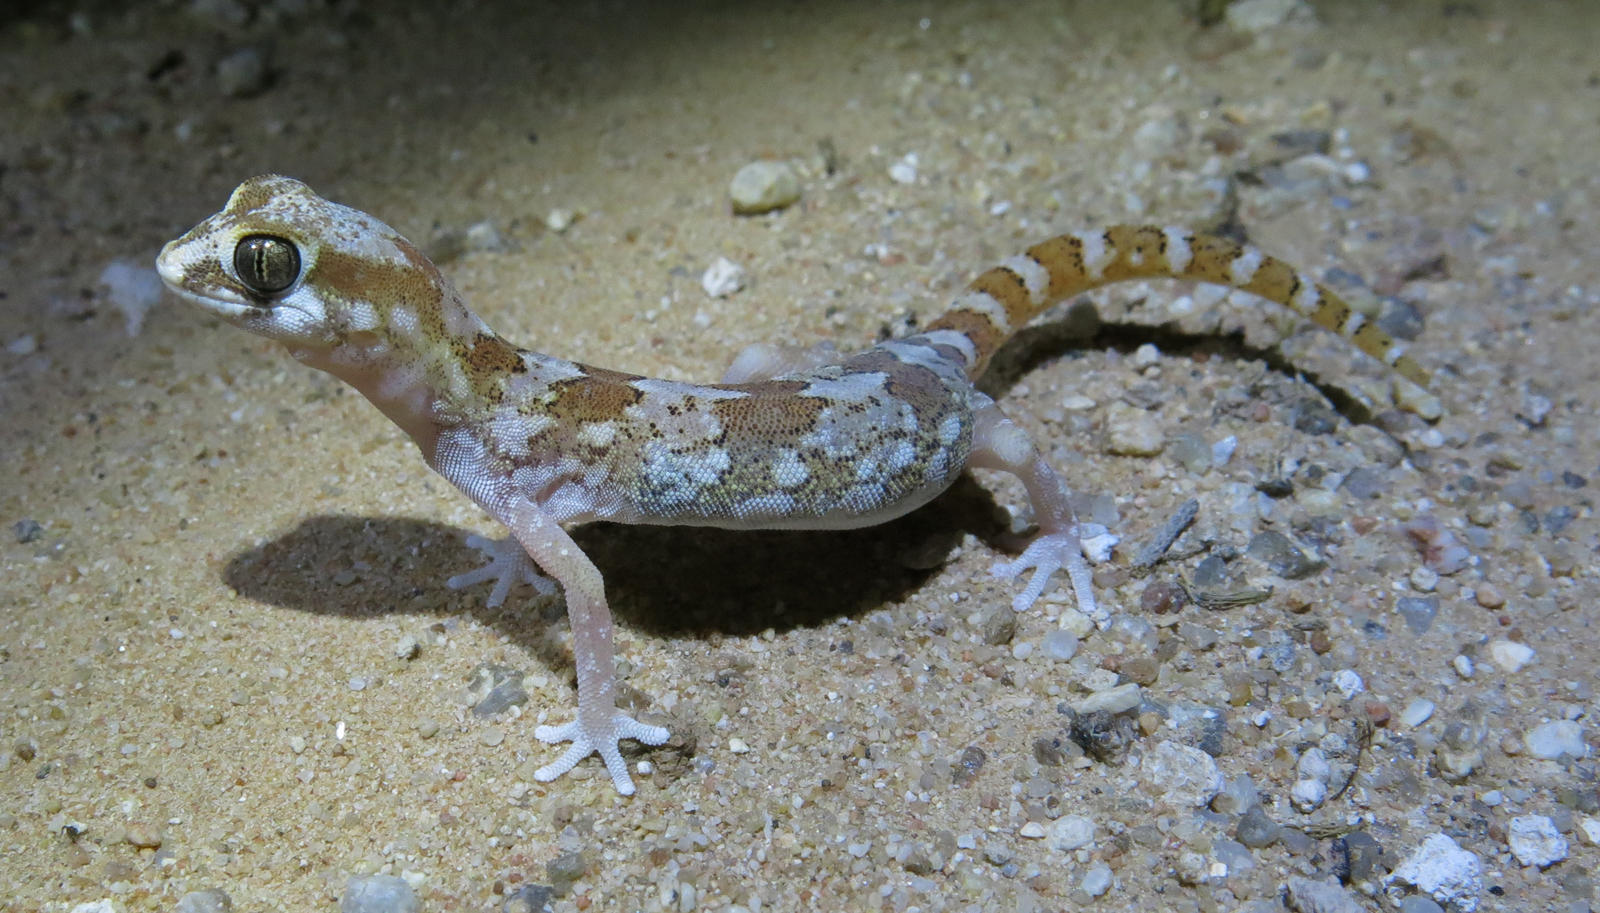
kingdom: Animalia
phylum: Chordata
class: Squamata
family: Gekkonidae
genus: Pachydactylus
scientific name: Pachydactylus latirostris
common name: Quartz gecko
